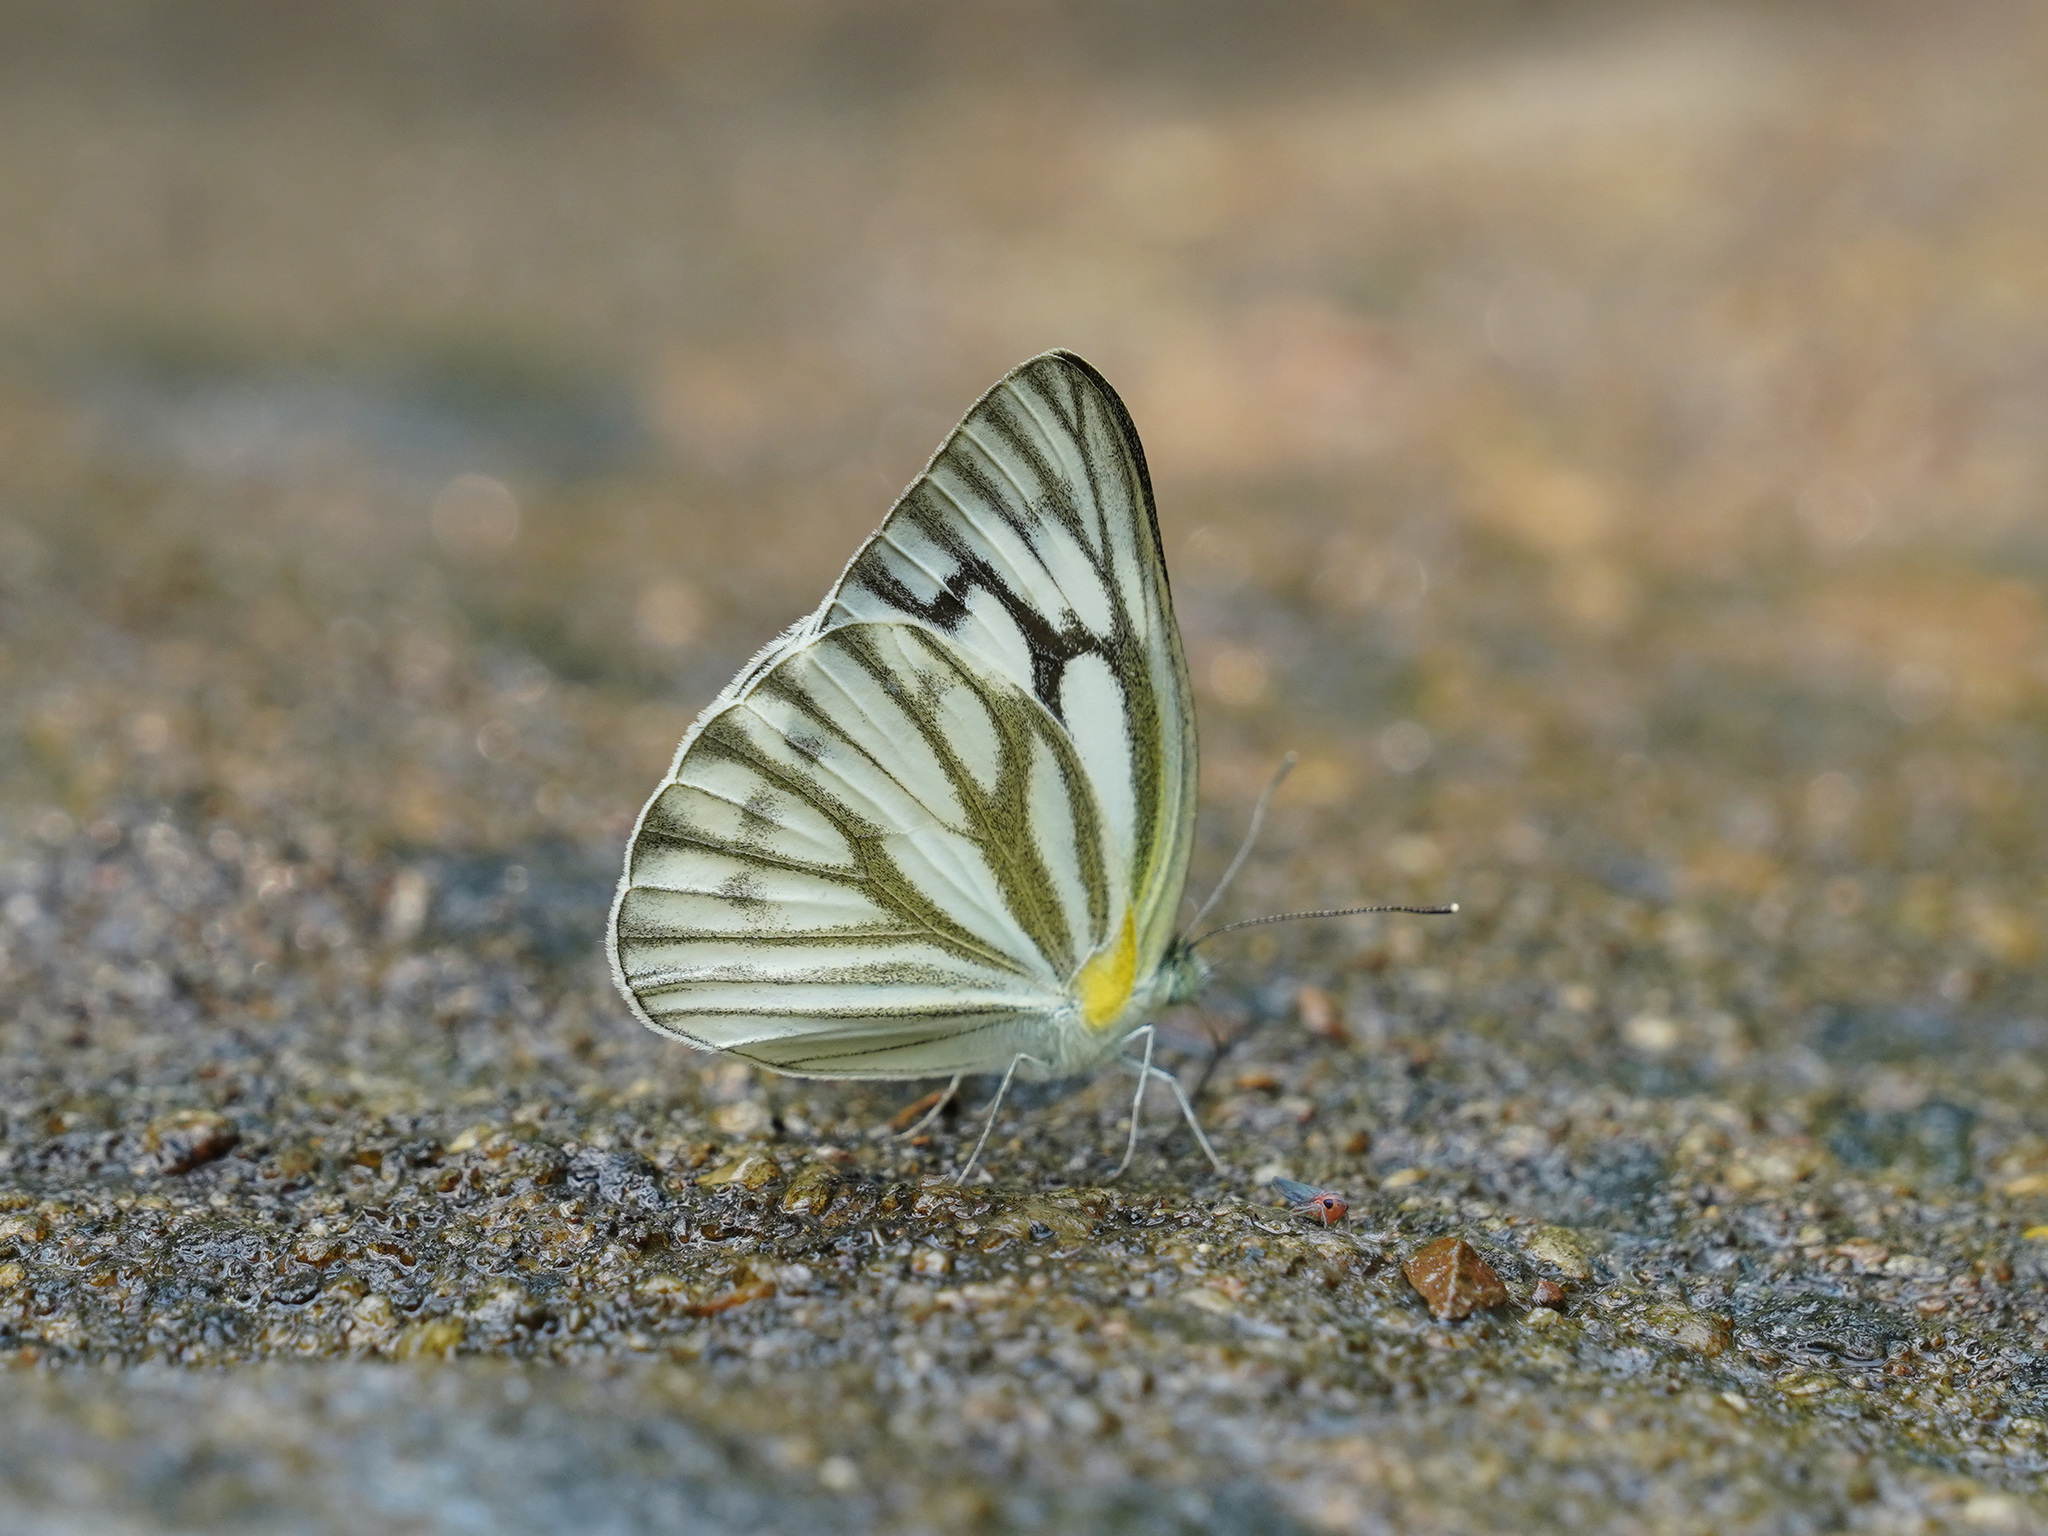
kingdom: Animalia
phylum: Arthropoda
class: Insecta
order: Lepidoptera
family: Pieridae
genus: Cepora
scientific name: Cepora nerissa
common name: Common gull
